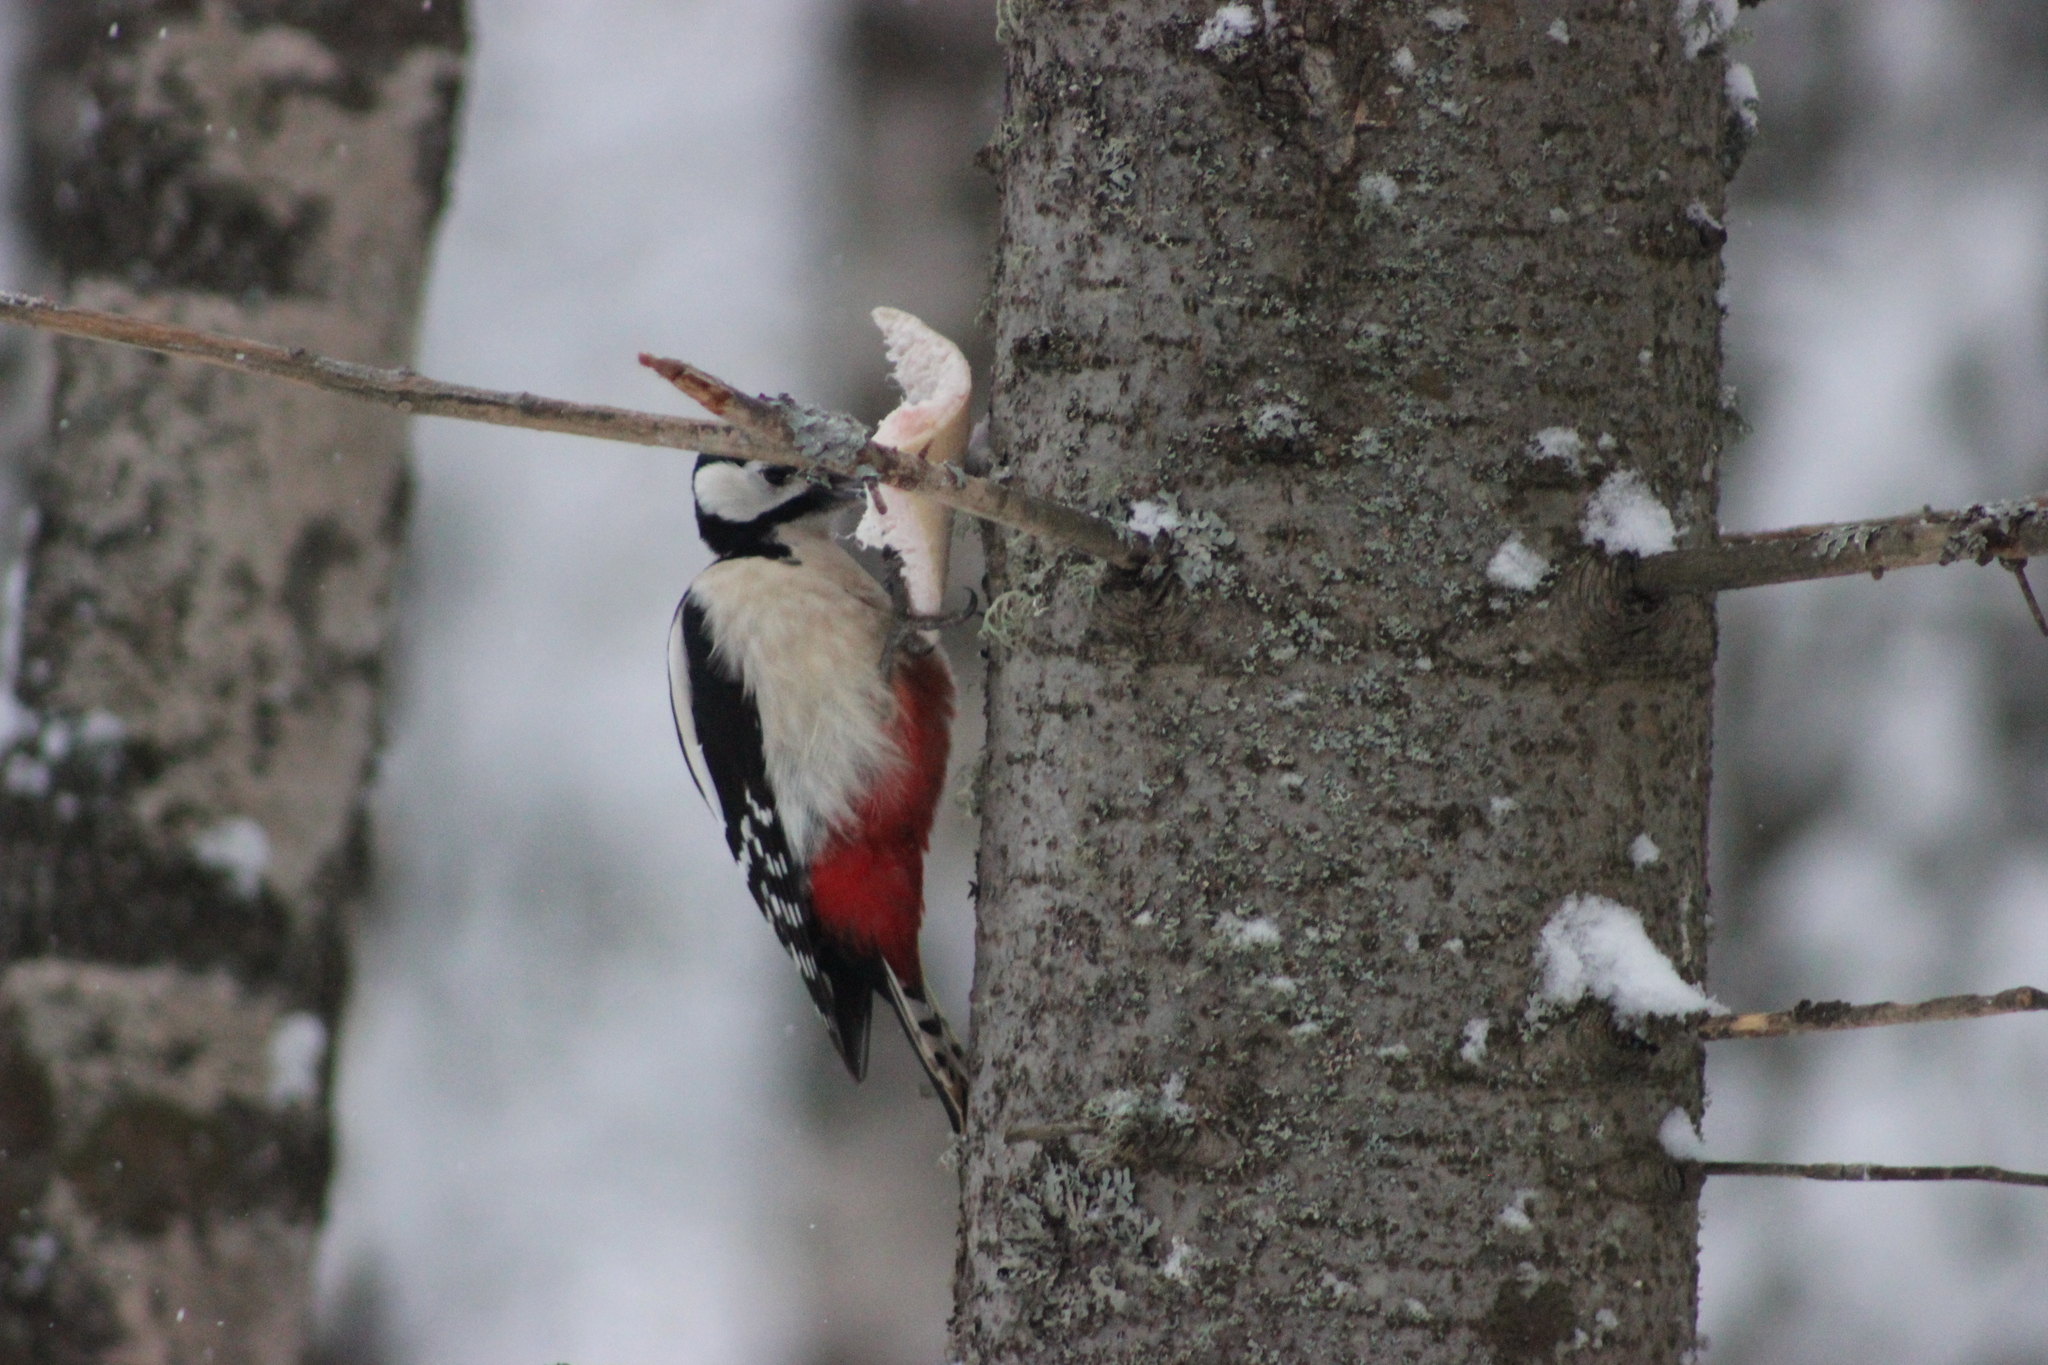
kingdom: Animalia
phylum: Chordata
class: Aves
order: Piciformes
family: Picidae
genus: Dendrocopos
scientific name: Dendrocopos major
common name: Great spotted woodpecker
